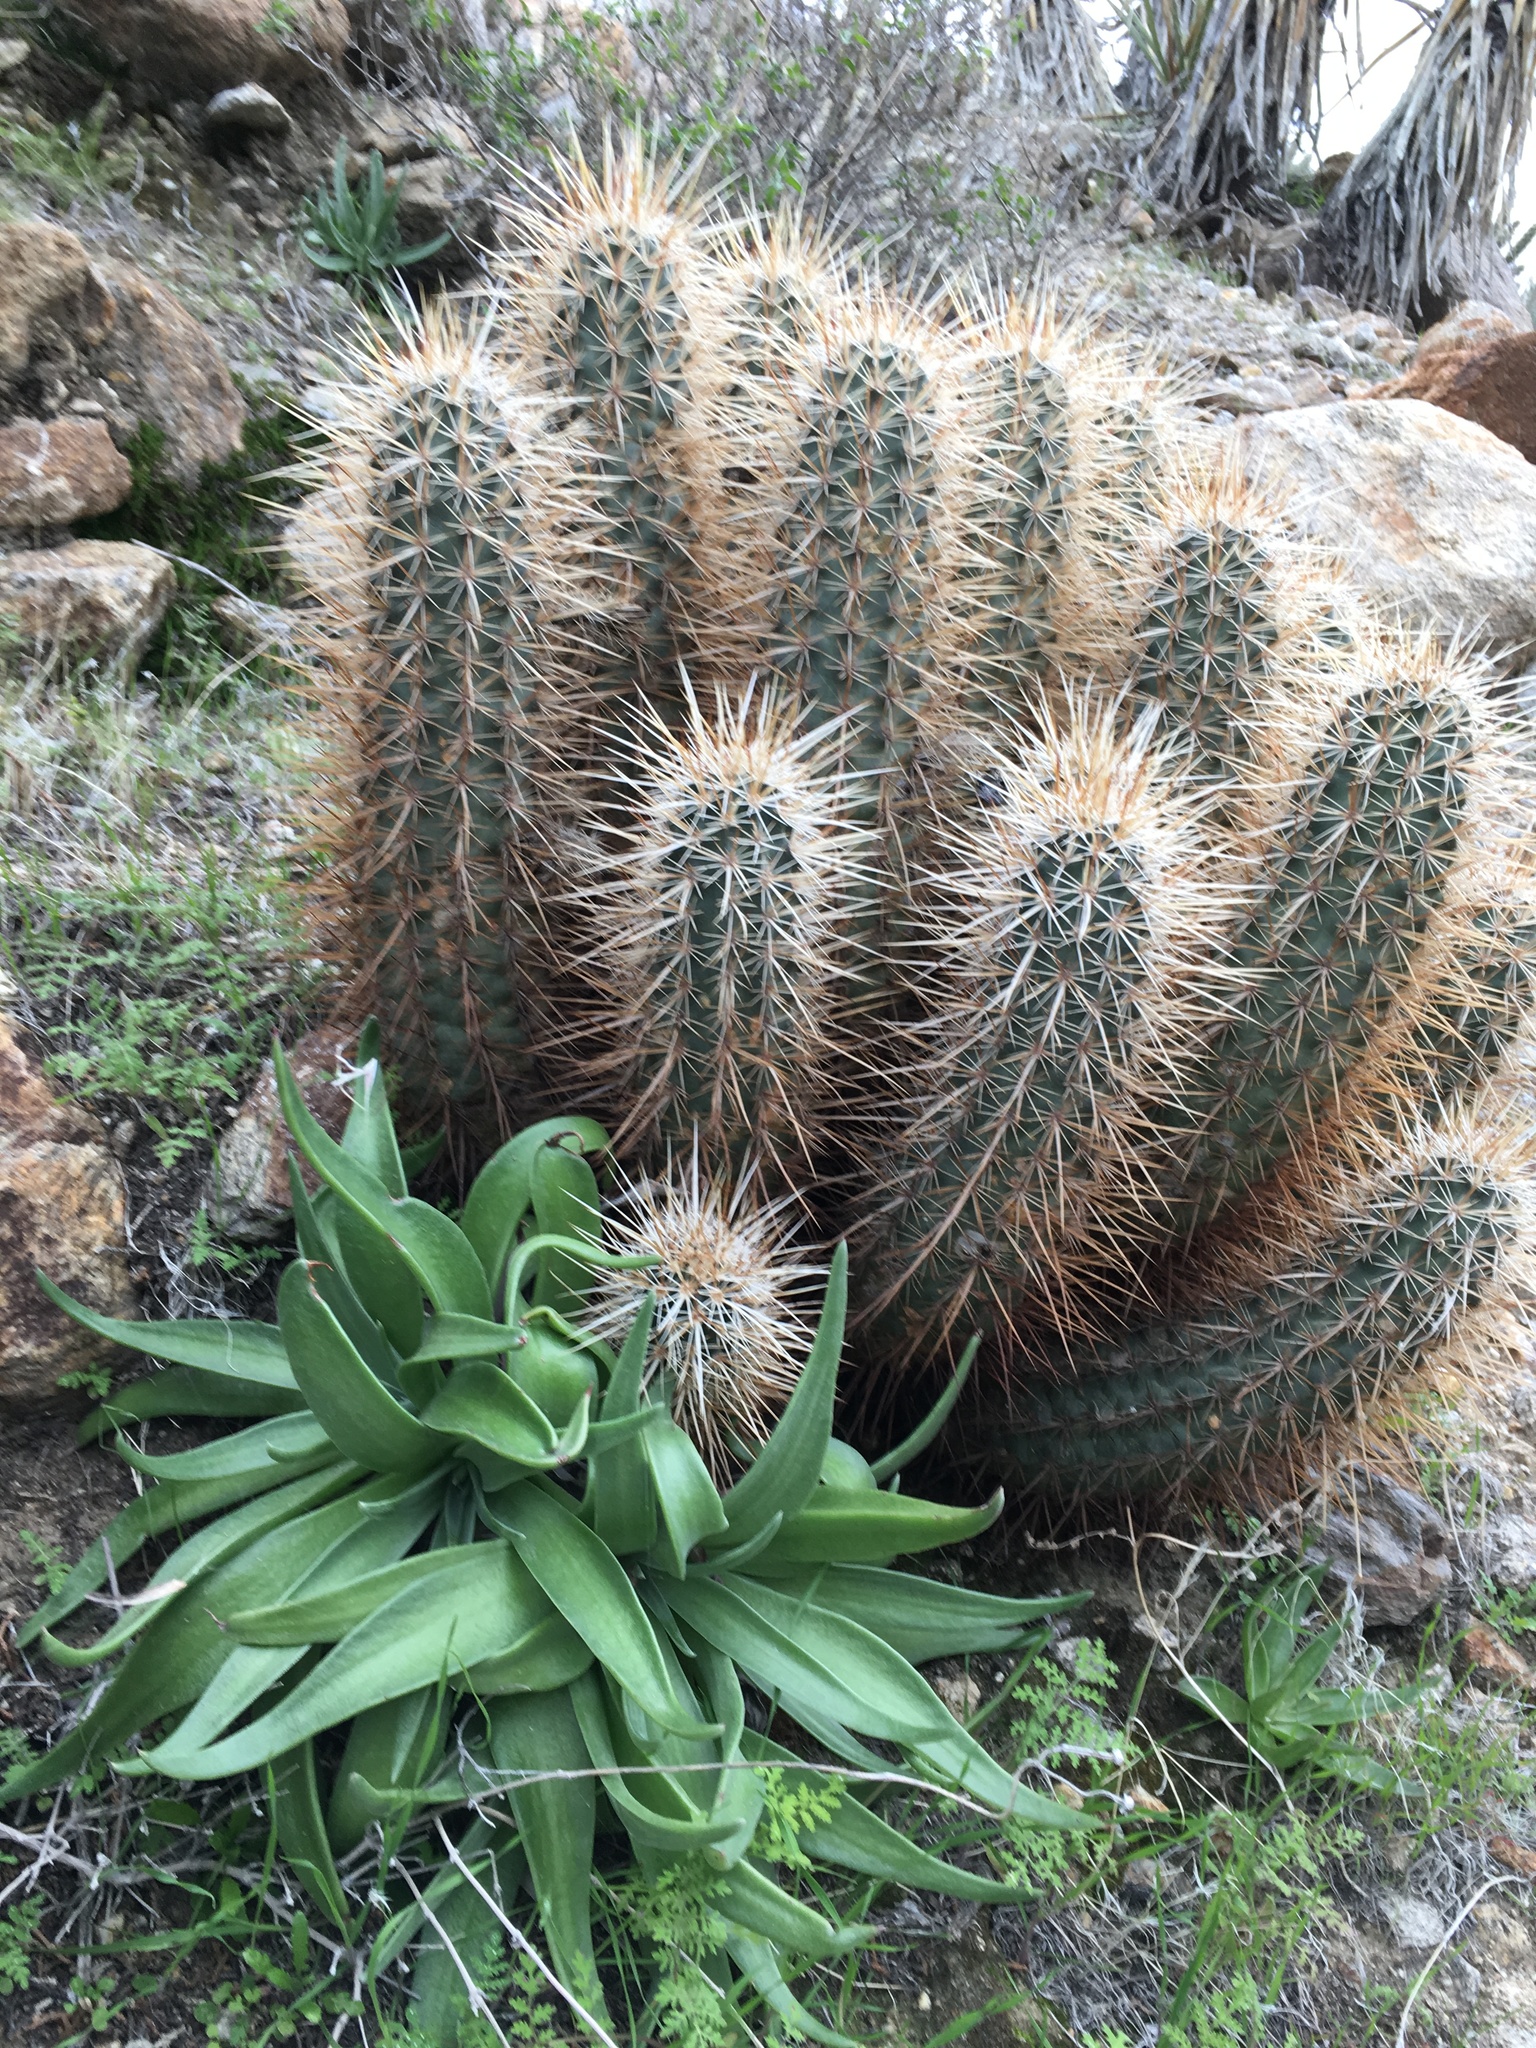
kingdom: Plantae
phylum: Tracheophyta
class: Magnoliopsida
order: Caryophyllales
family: Cactaceae
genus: Echinocereus
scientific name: Echinocereus engelmannii
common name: Engelmann's hedgehog cactus
